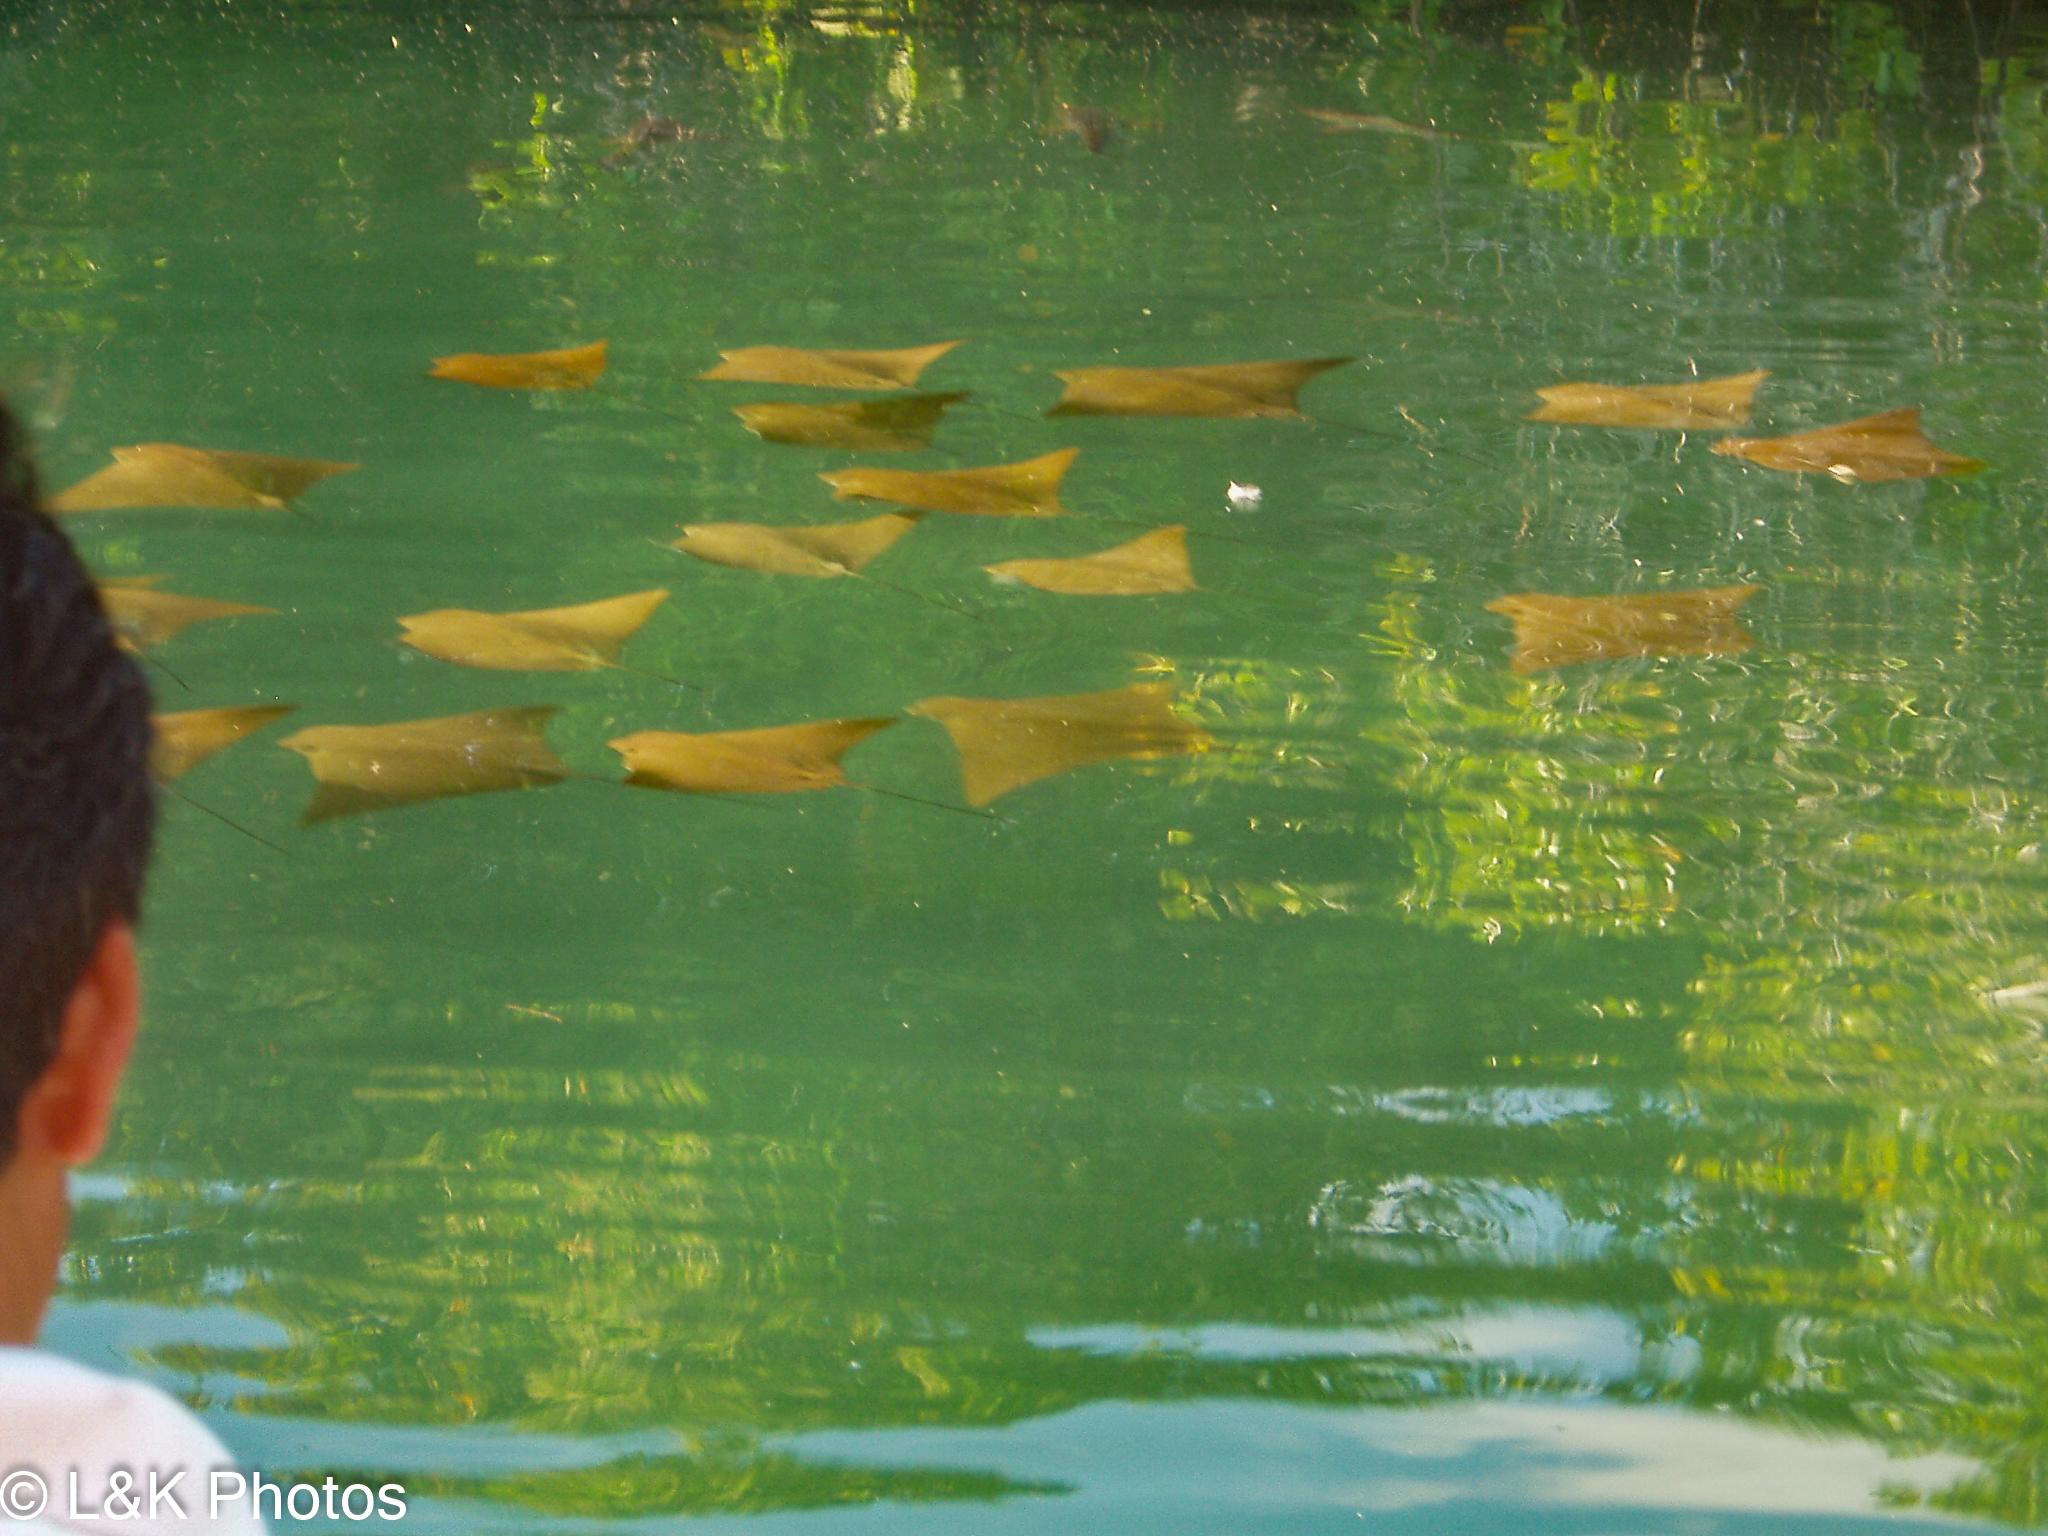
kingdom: Animalia
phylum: Chordata
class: Elasmobranchii
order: Myliobatiformes
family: Myliobatidae
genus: Rhinoptera
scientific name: Rhinoptera steindachneri
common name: Golden cownose ray
